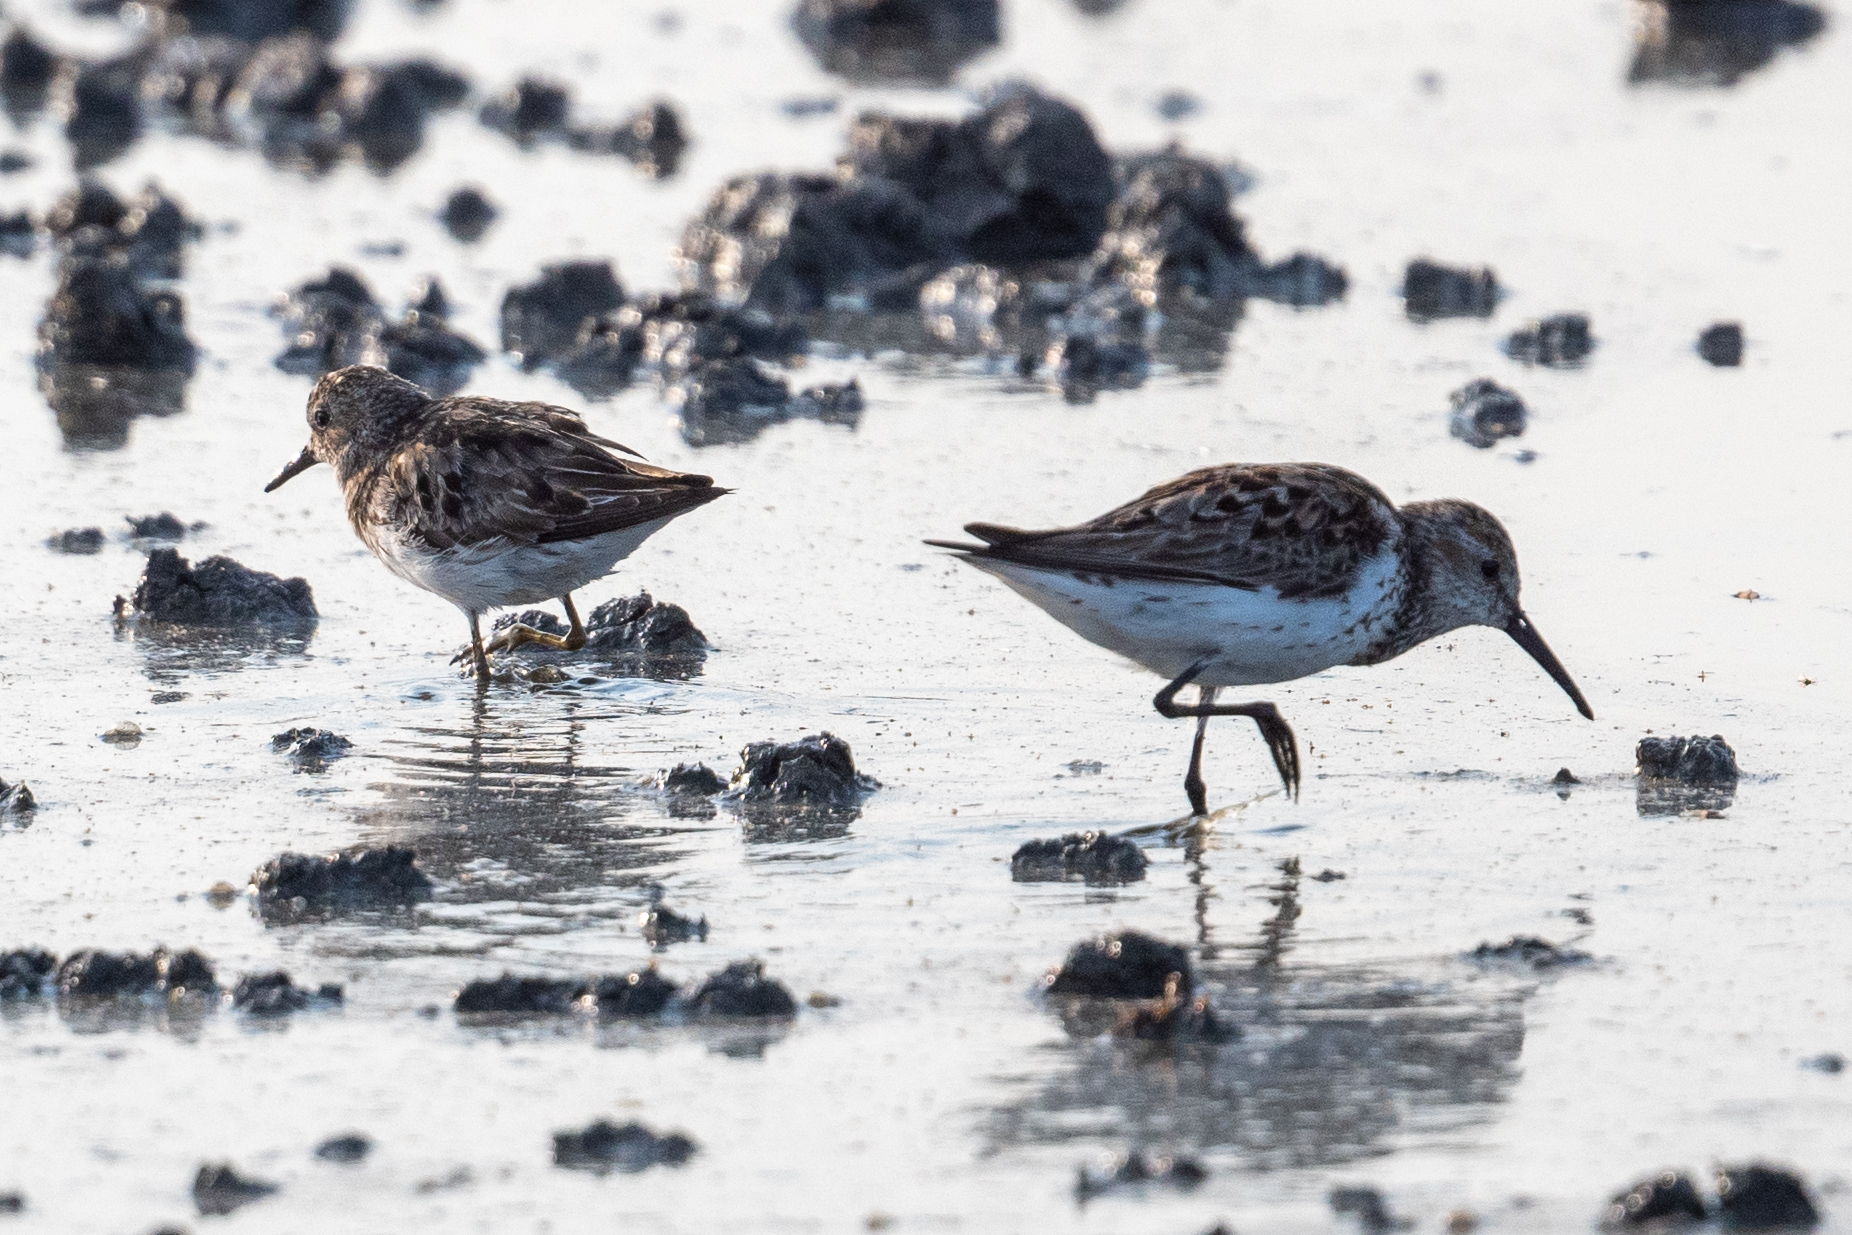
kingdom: Animalia
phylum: Chordata
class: Aves
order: Charadriiformes
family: Scolopacidae
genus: Calidris
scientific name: Calidris mauri
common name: Western sandpiper
